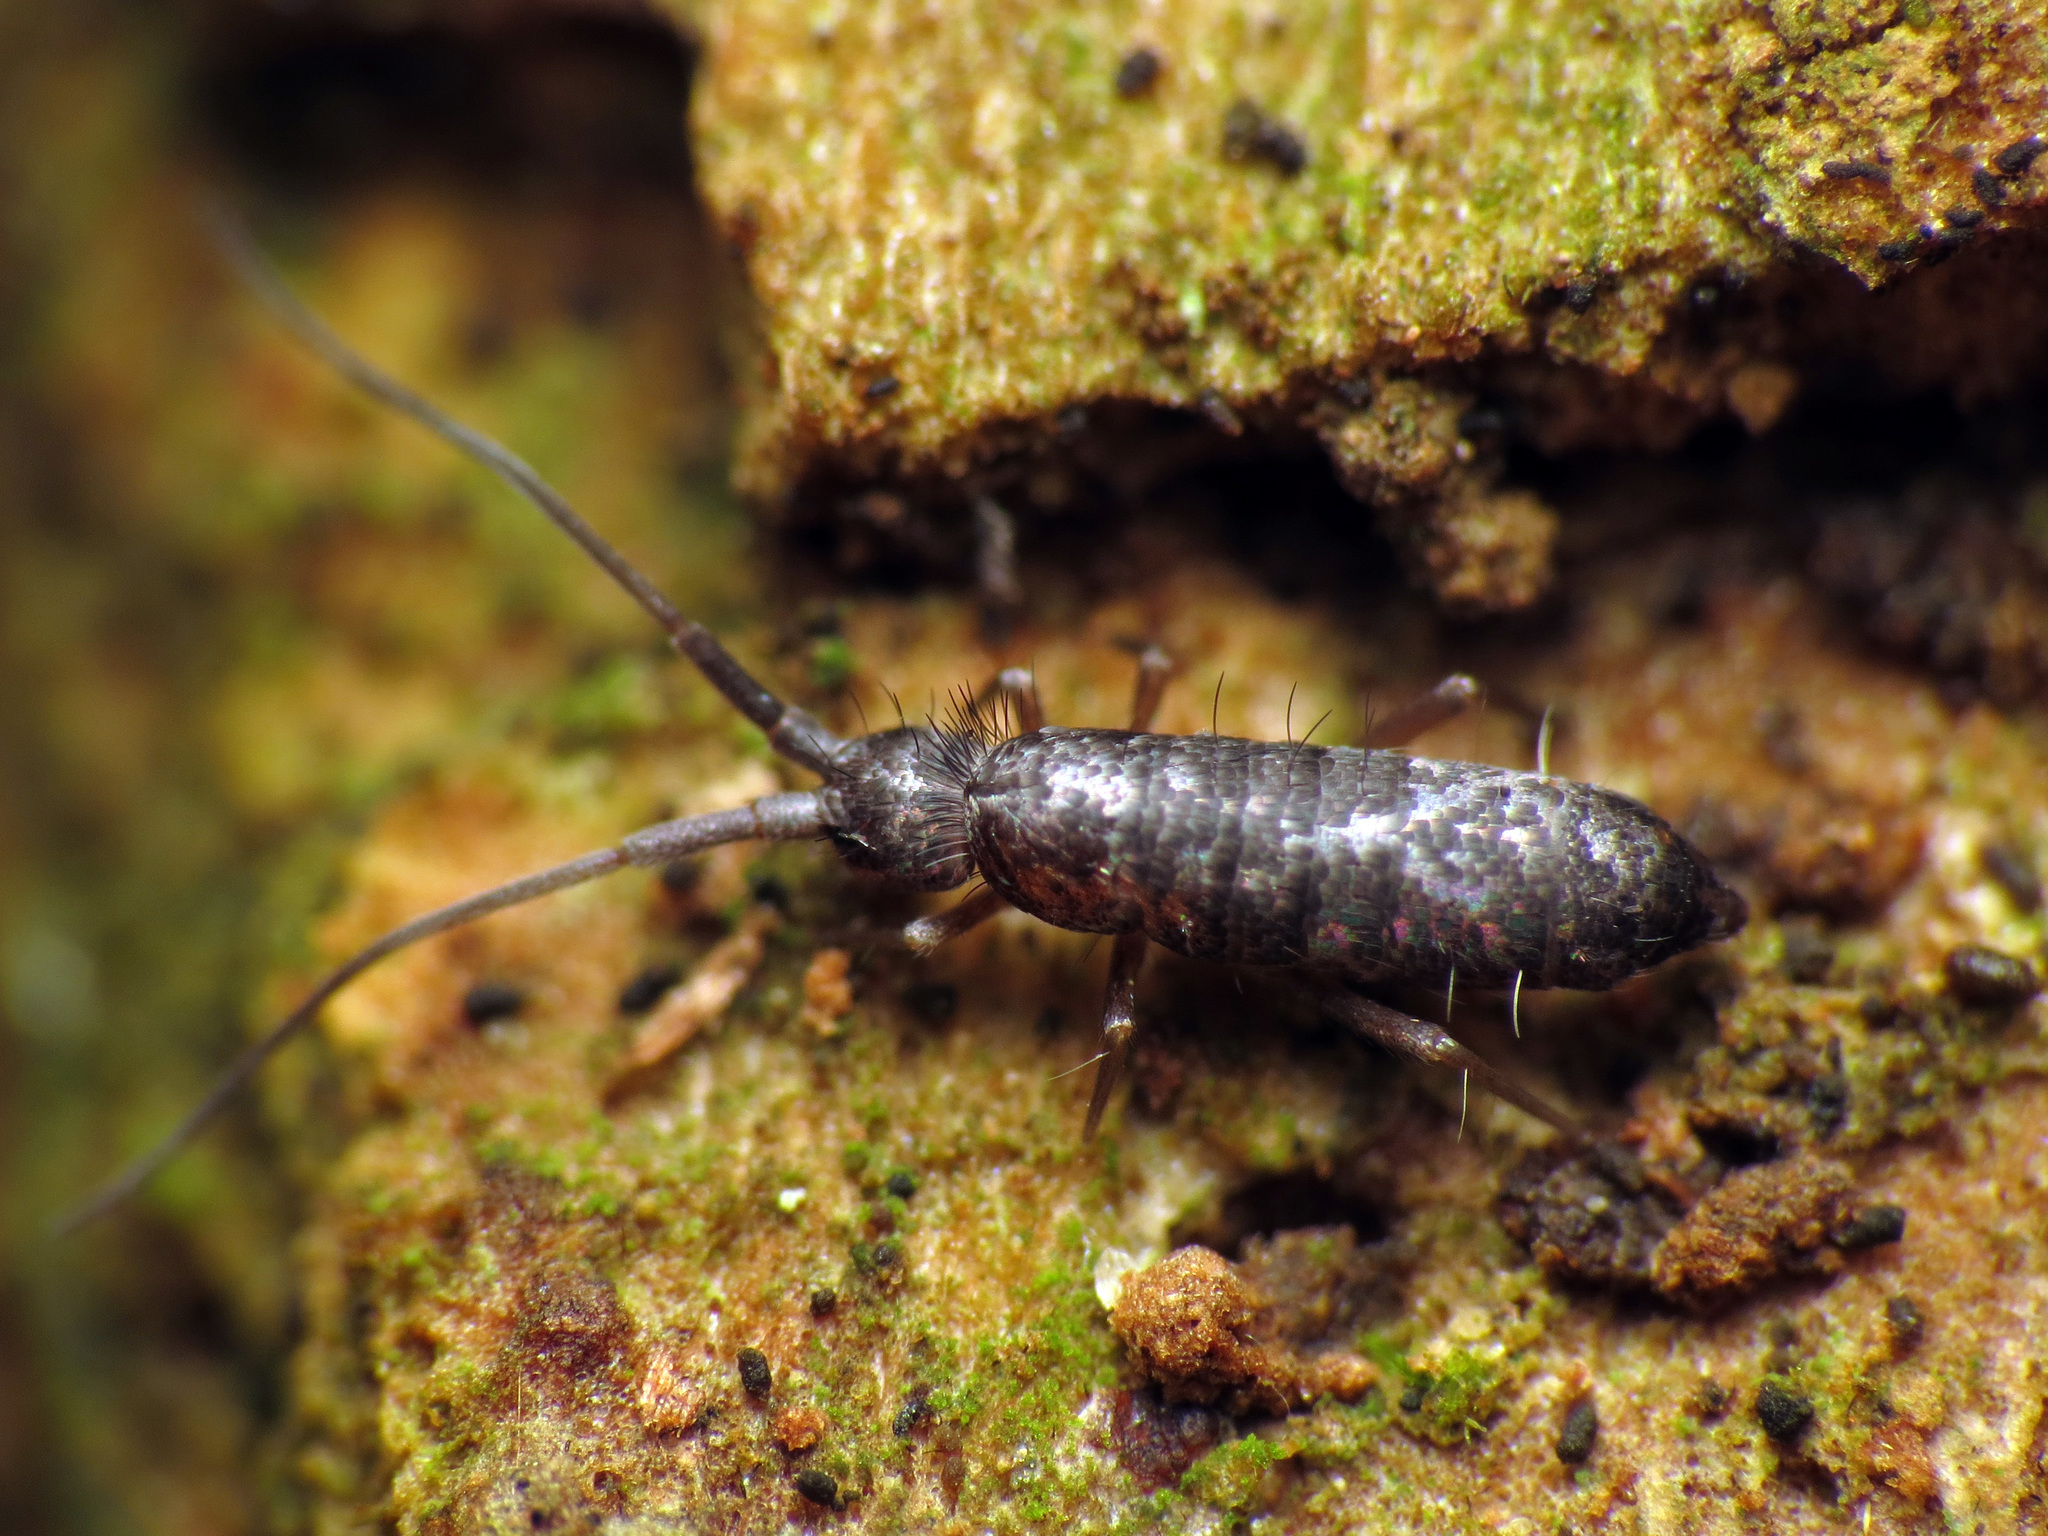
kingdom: Animalia
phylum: Arthropoda
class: Collembola
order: Entomobryomorpha
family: Tomoceridae
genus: Pogonognathellus
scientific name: Pogonognathellus dubius
